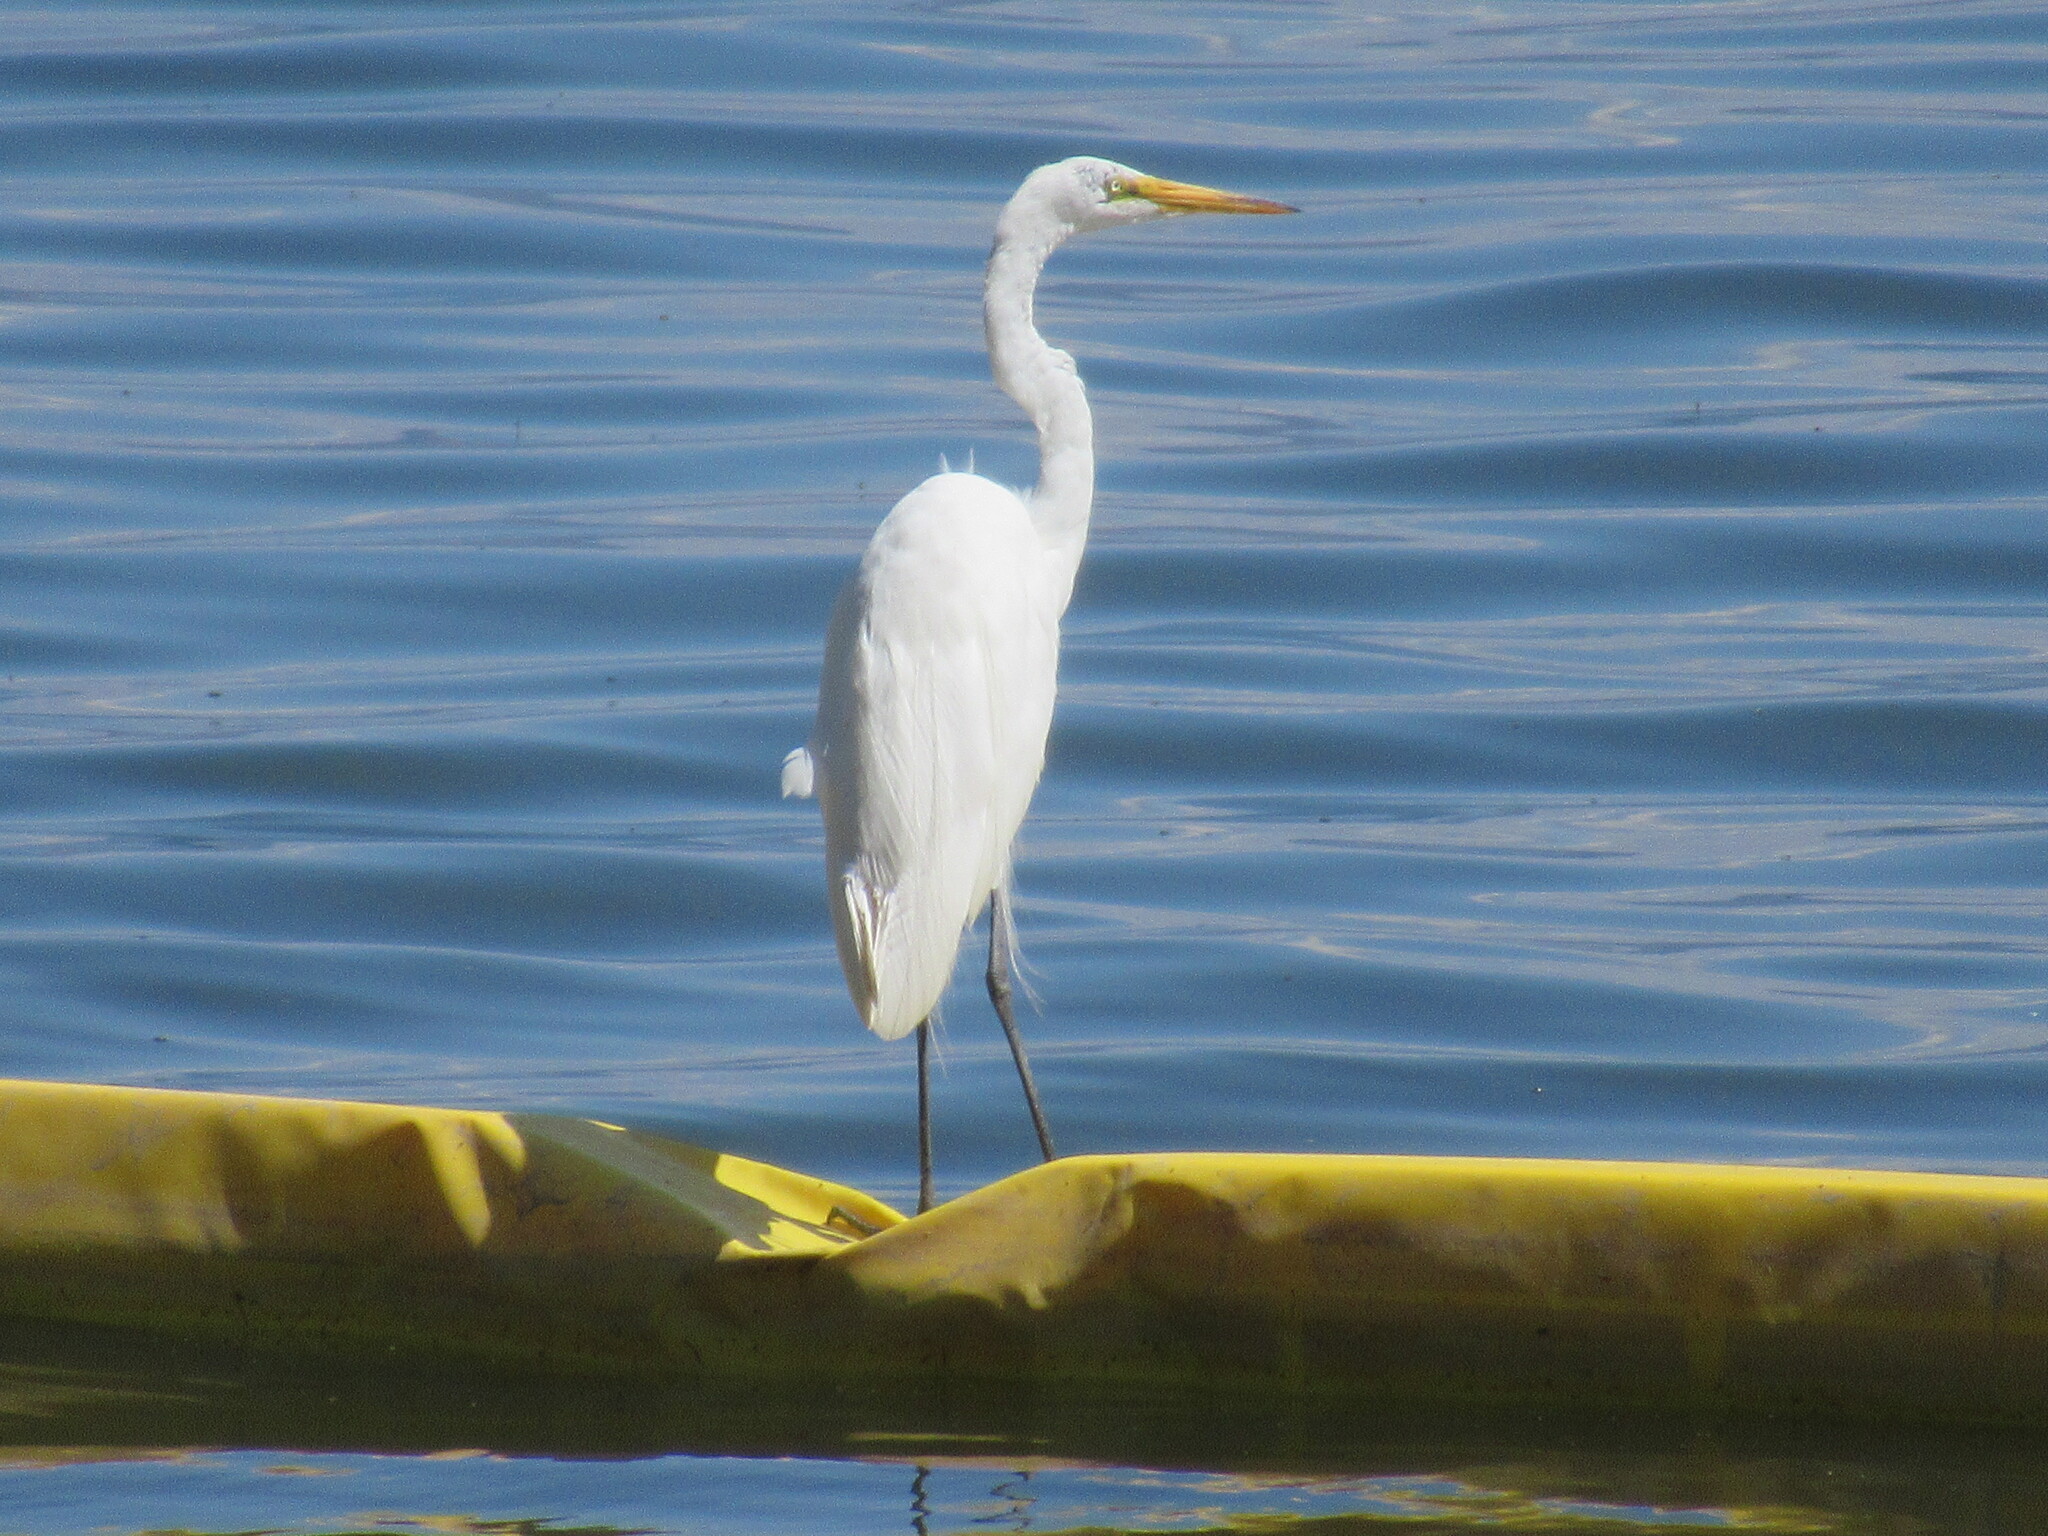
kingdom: Animalia
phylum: Chordata
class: Aves
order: Pelecaniformes
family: Ardeidae
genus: Ardea
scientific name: Ardea alba
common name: Great egret
